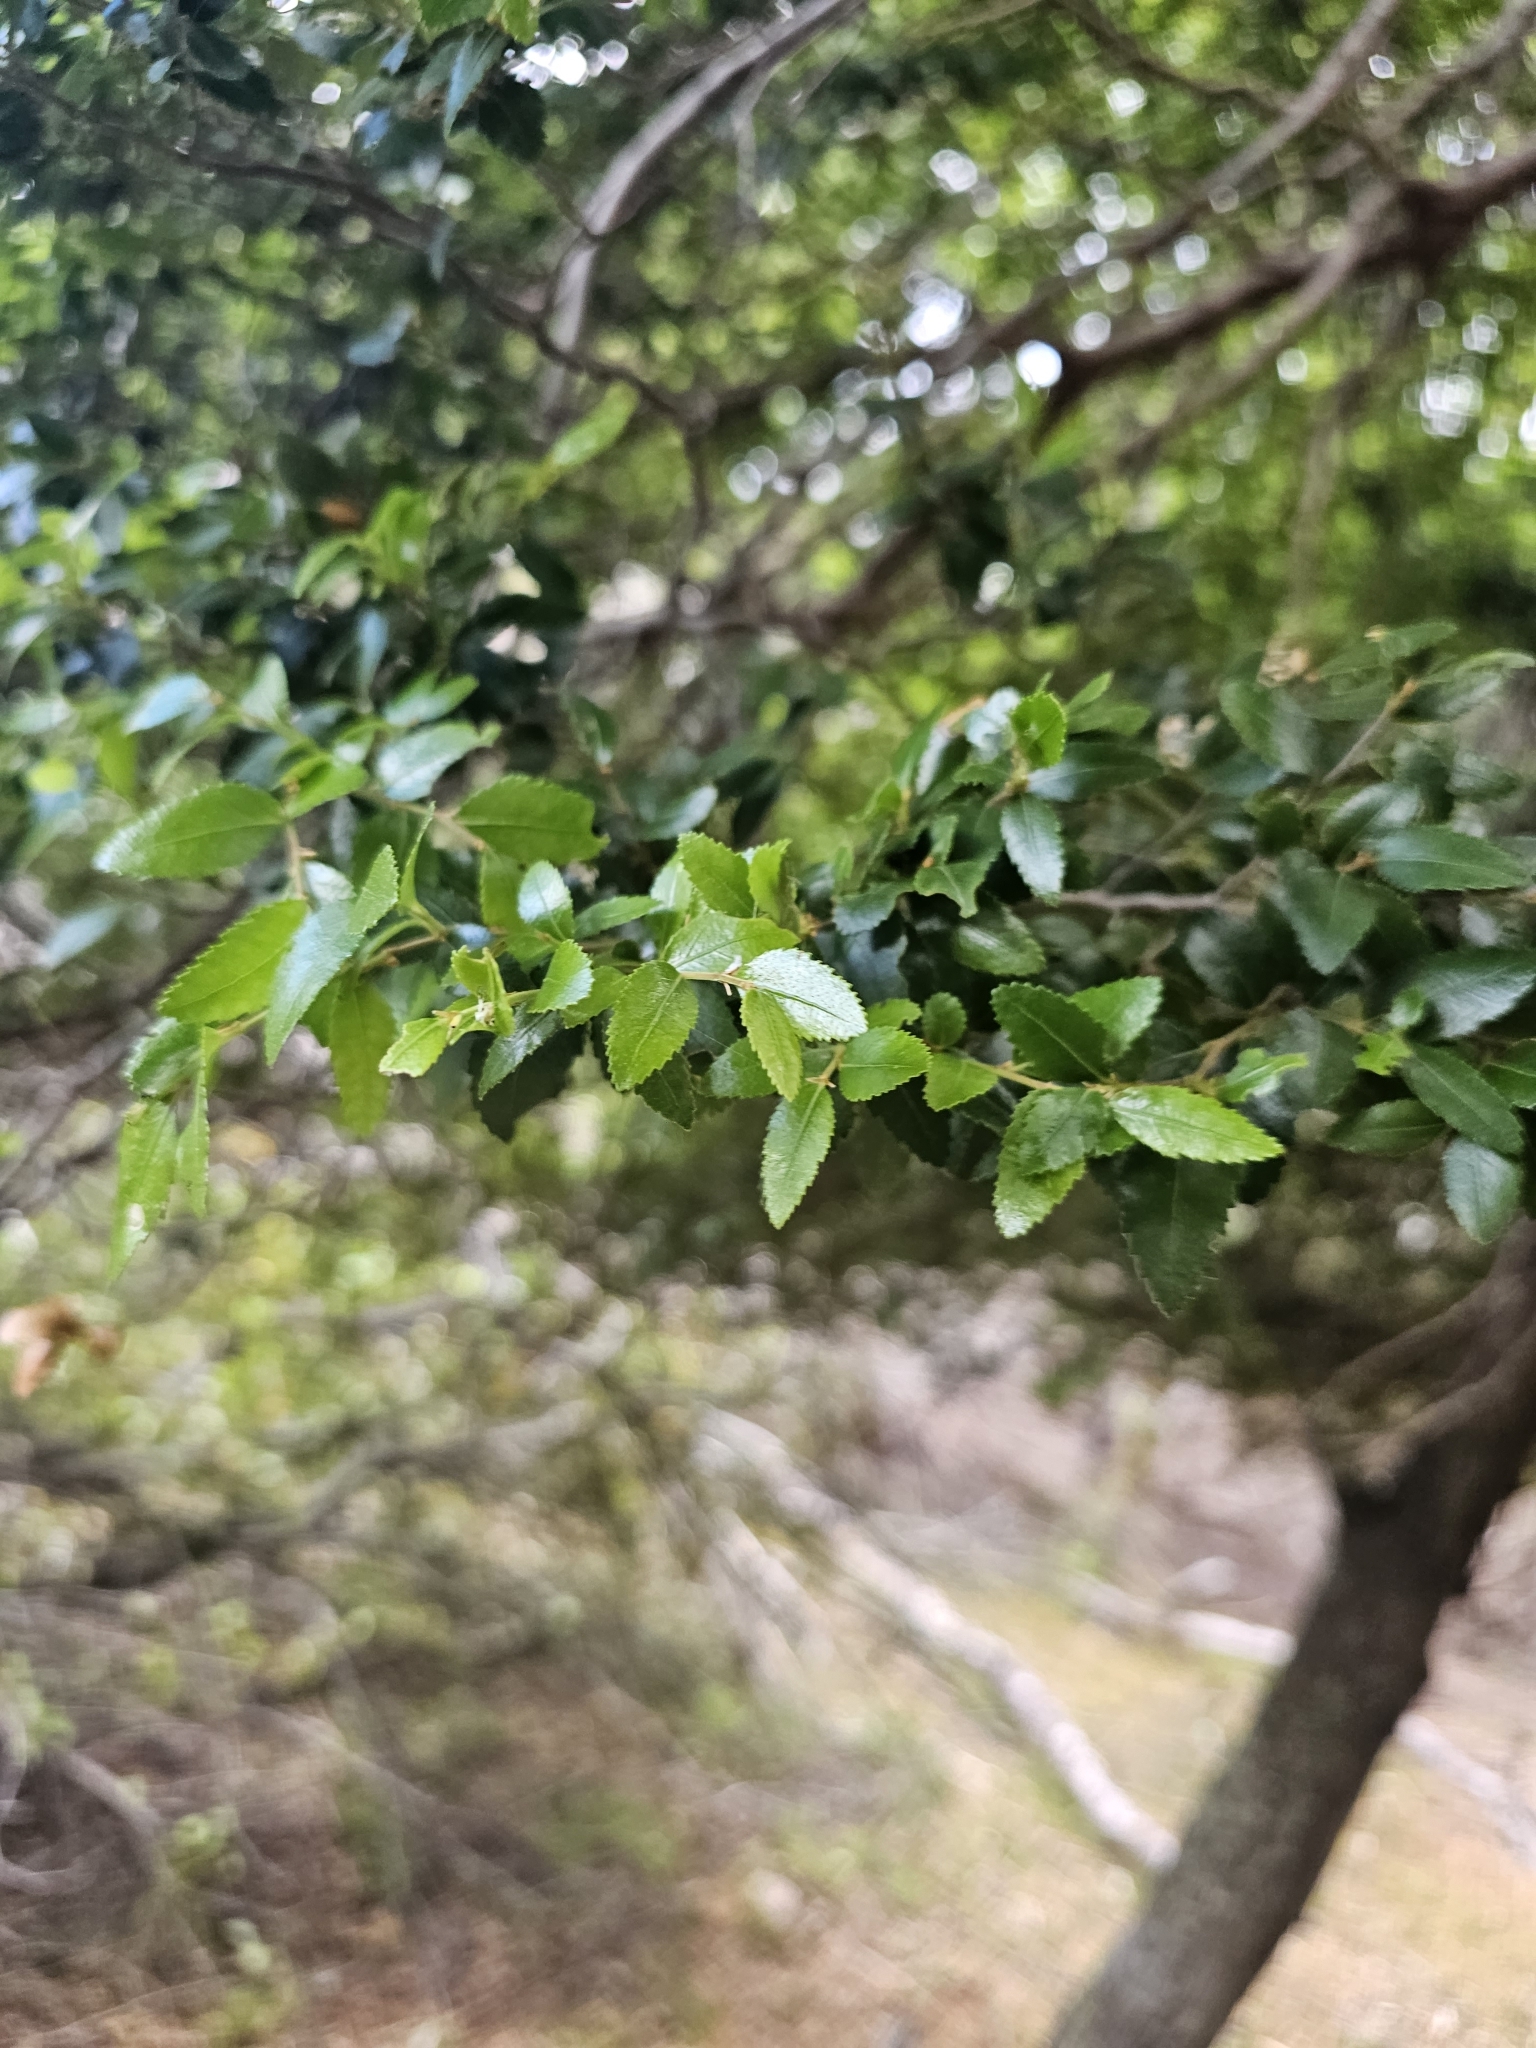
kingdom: Plantae
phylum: Tracheophyta
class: Magnoliopsida
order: Fagales
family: Nothofagaceae
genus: Nothofagus
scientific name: Nothofagus dombeyi
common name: Coigue
